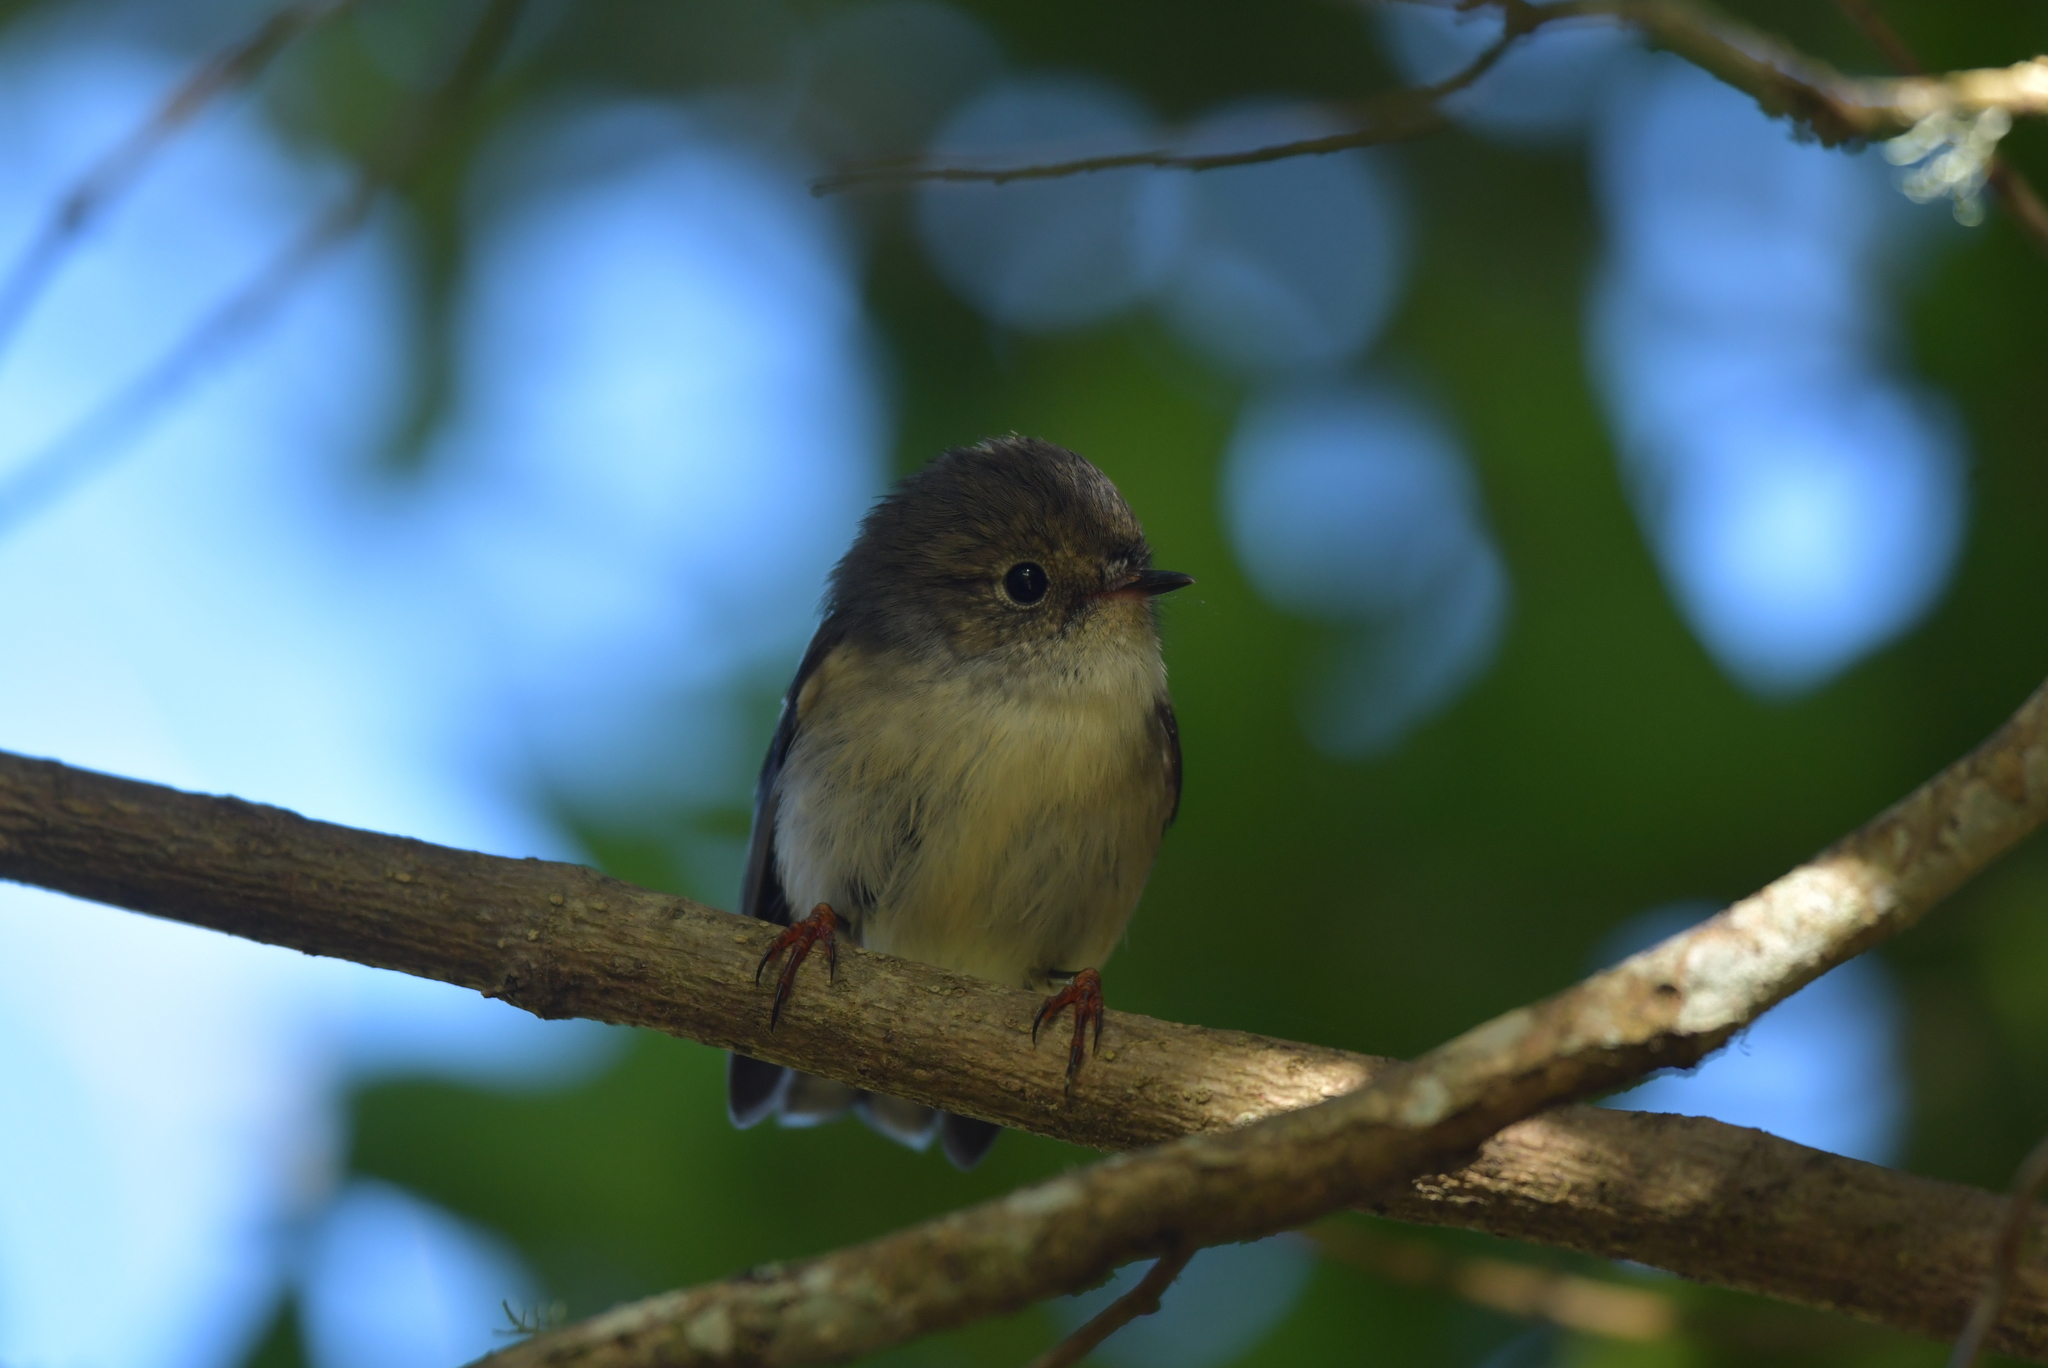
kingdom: Animalia
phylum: Chordata
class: Aves
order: Passeriformes
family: Petroicidae
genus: Petroica
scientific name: Petroica macrocephala
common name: Tomtit
